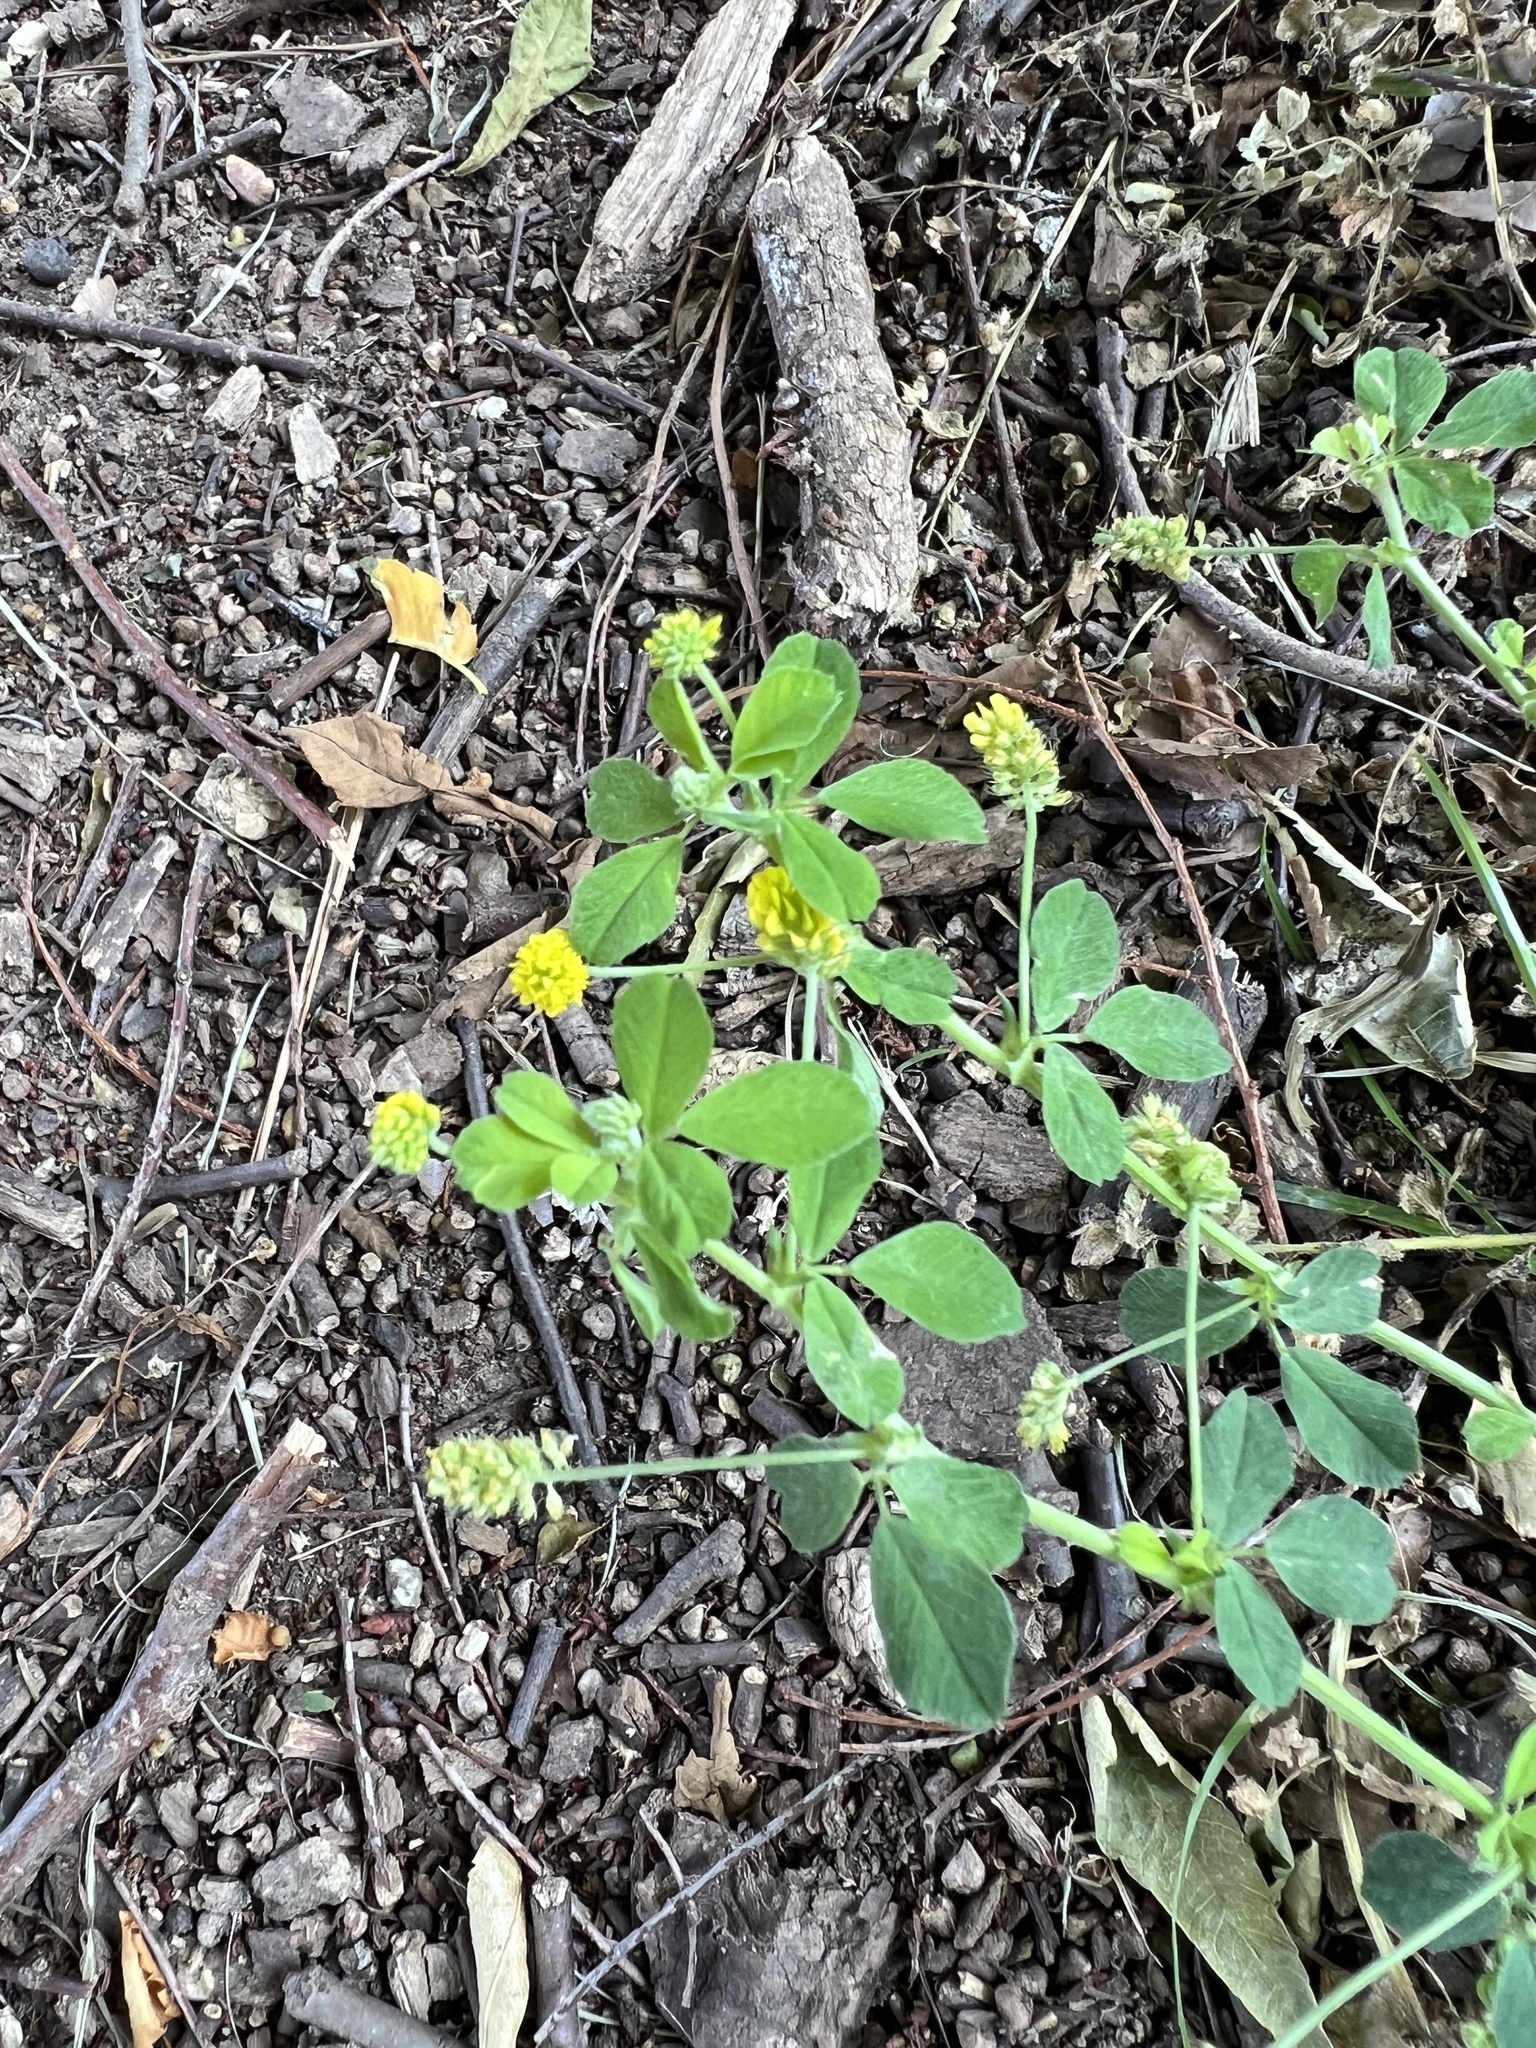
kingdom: Plantae
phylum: Tracheophyta
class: Magnoliopsida
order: Fabales
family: Fabaceae
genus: Medicago
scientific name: Medicago lupulina
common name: Black medick
